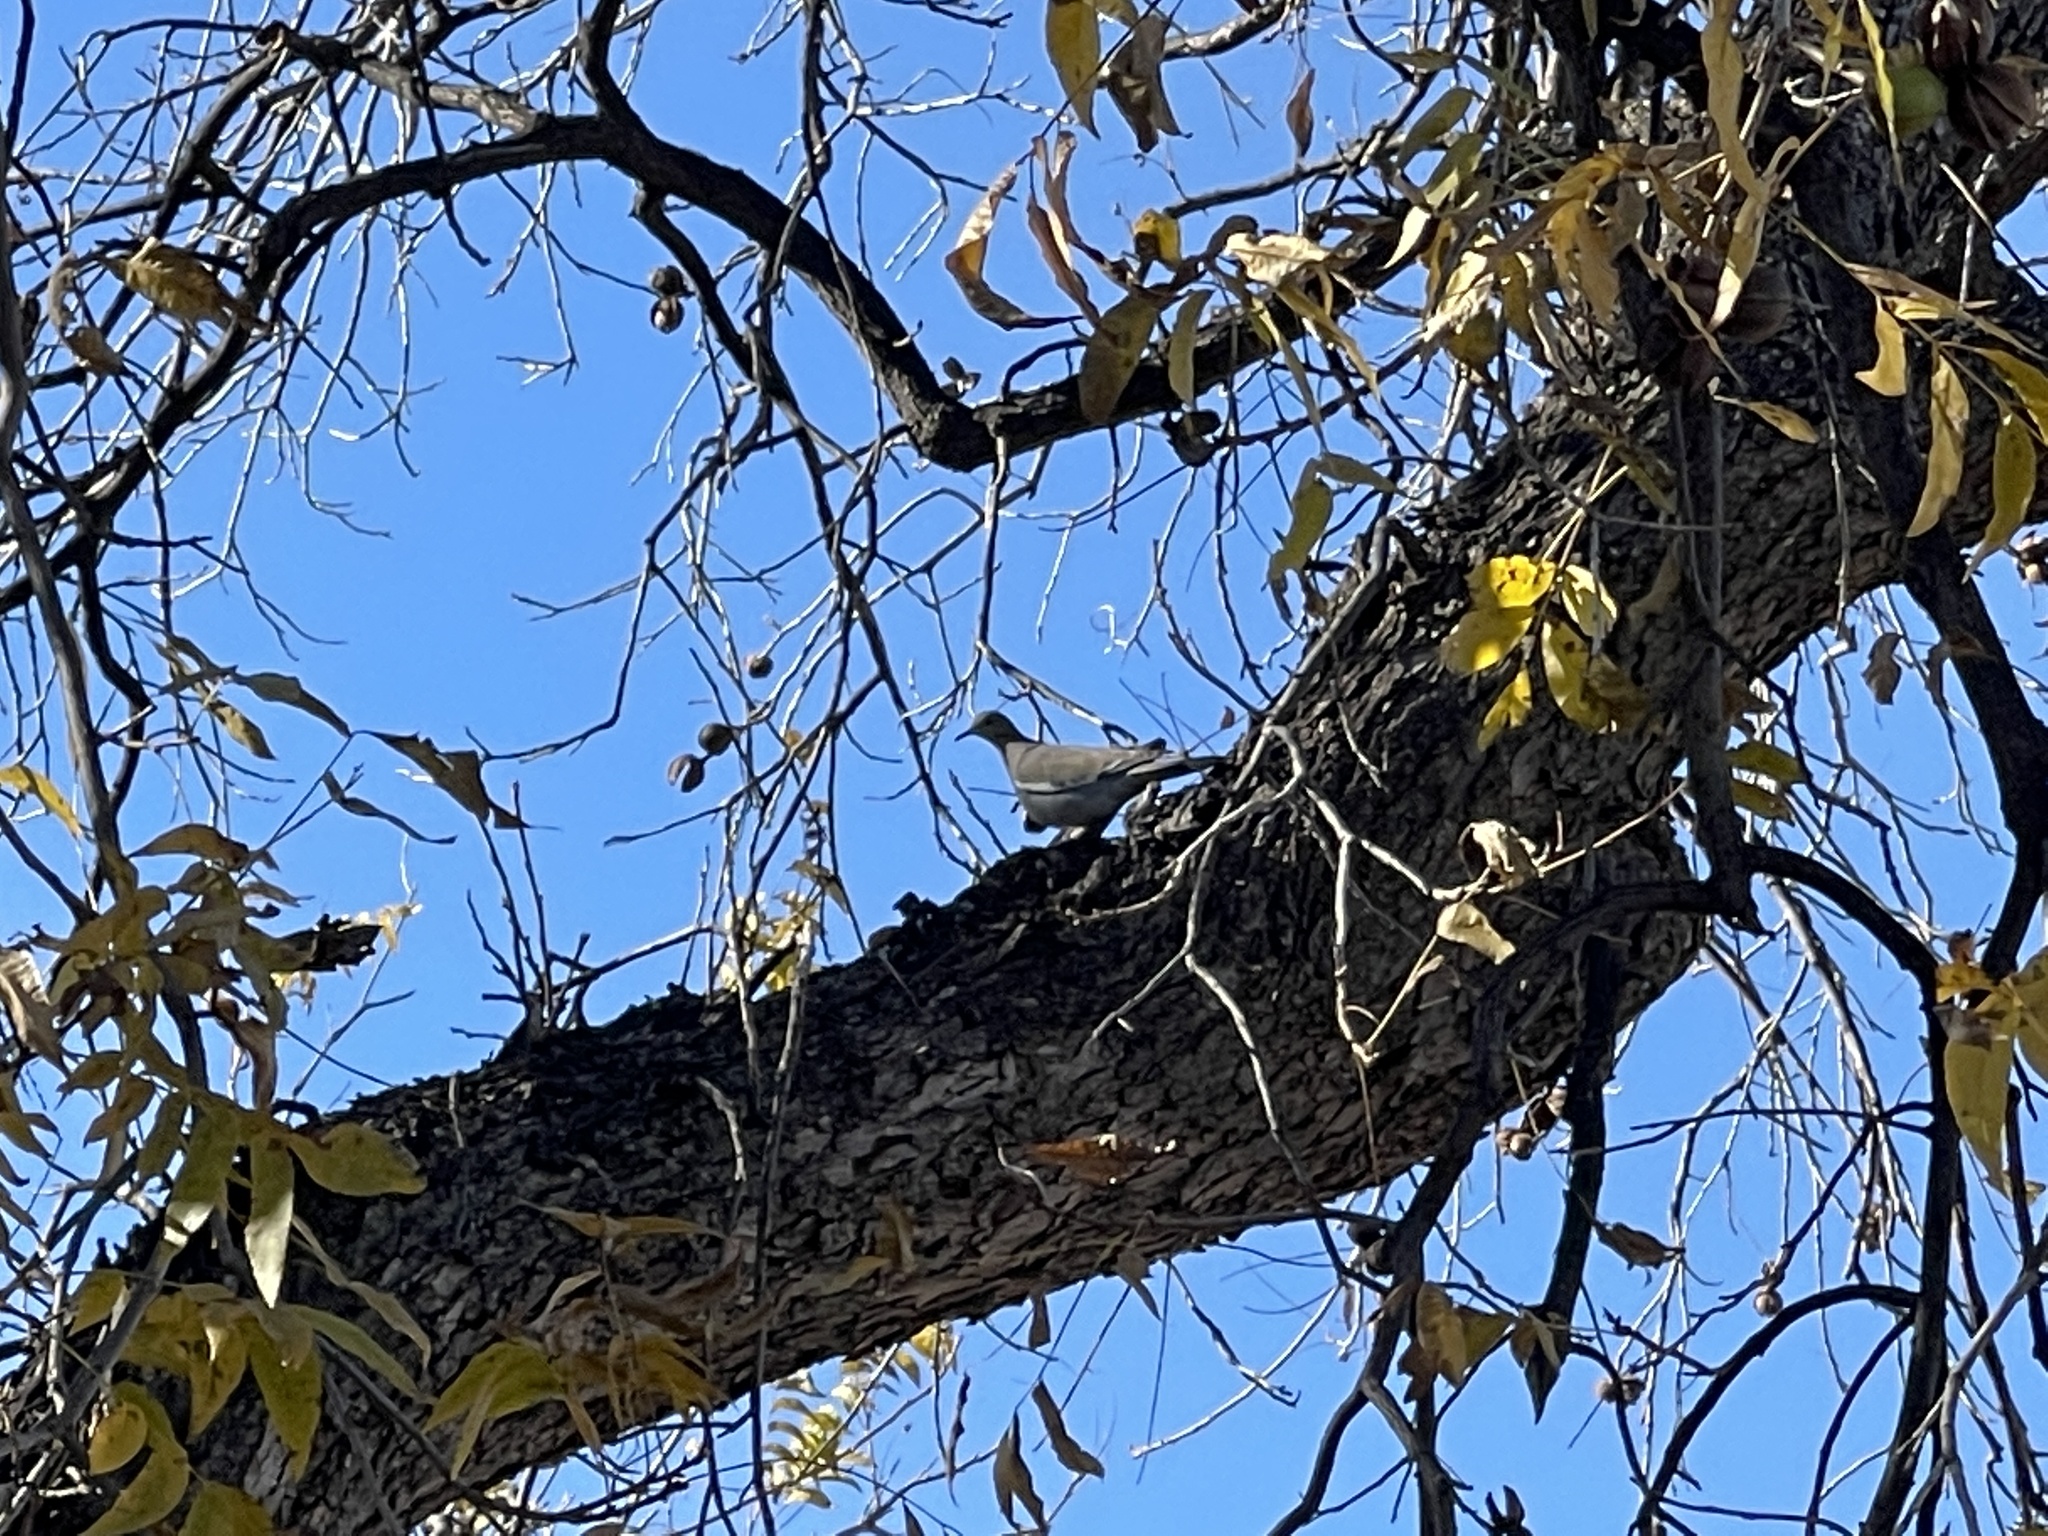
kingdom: Animalia
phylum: Chordata
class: Aves
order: Columbiformes
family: Columbidae
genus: Zenaida
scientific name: Zenaida asiatica
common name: White-winged dove
